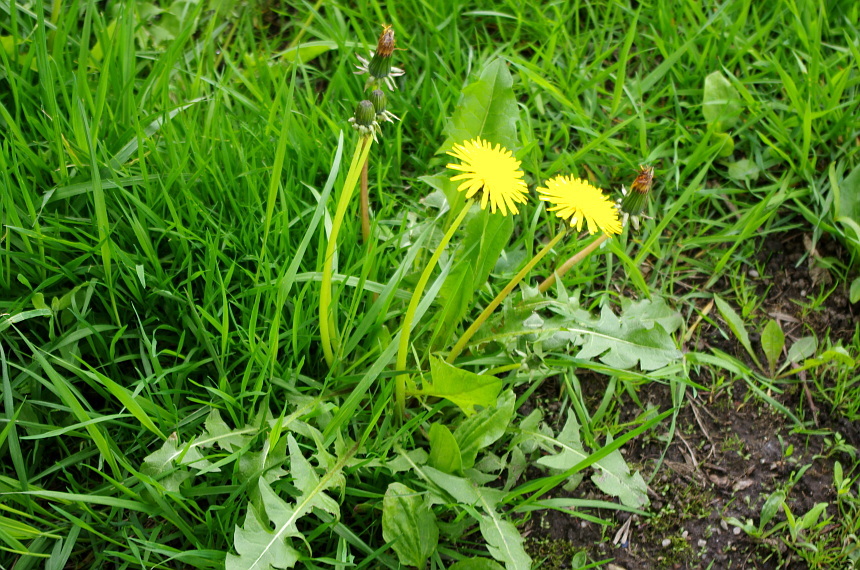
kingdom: Plantae
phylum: Tracheophyta
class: Magnoliopsida
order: Asterales
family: Asteraceae
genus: Taraxacum
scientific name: Taraxacum officinale
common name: Common dandelion
